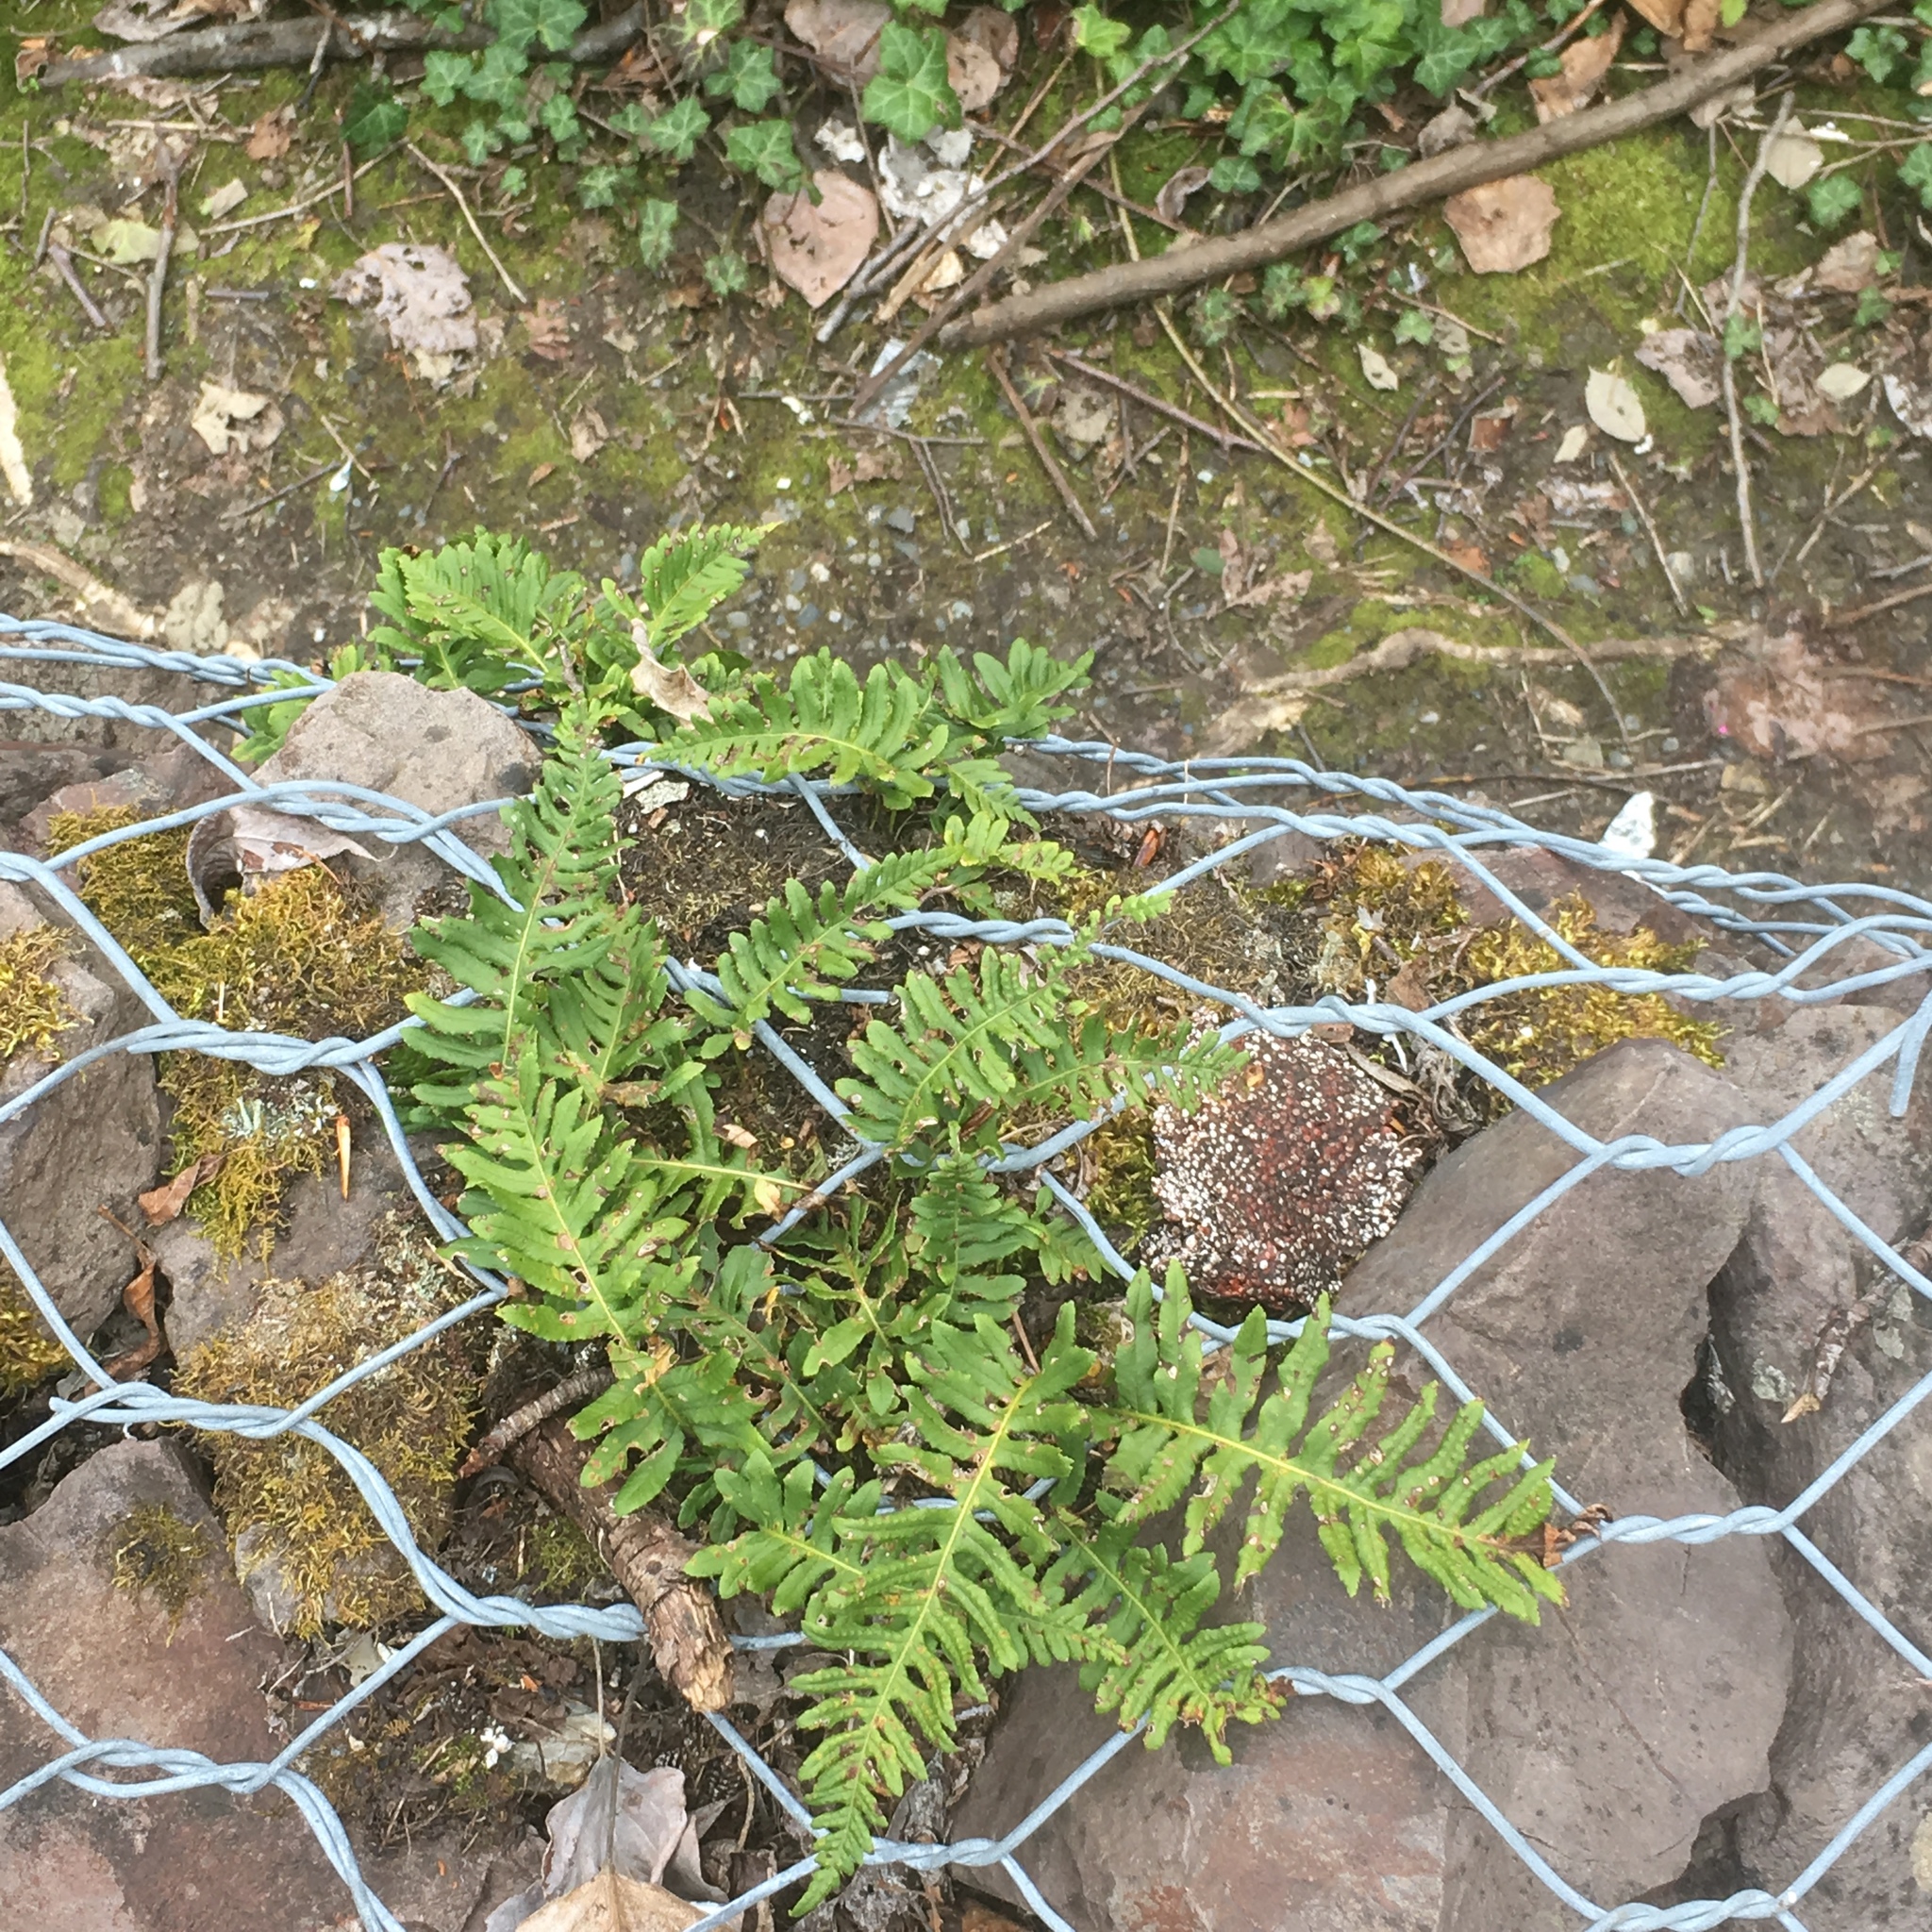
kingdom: Plantae
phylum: Tracheophyta
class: Polypodiopsida
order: Polypodiales
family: Polypodiaceae
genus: Polypodium
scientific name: Polypodium glycyrrhiza
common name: Licorice fern
